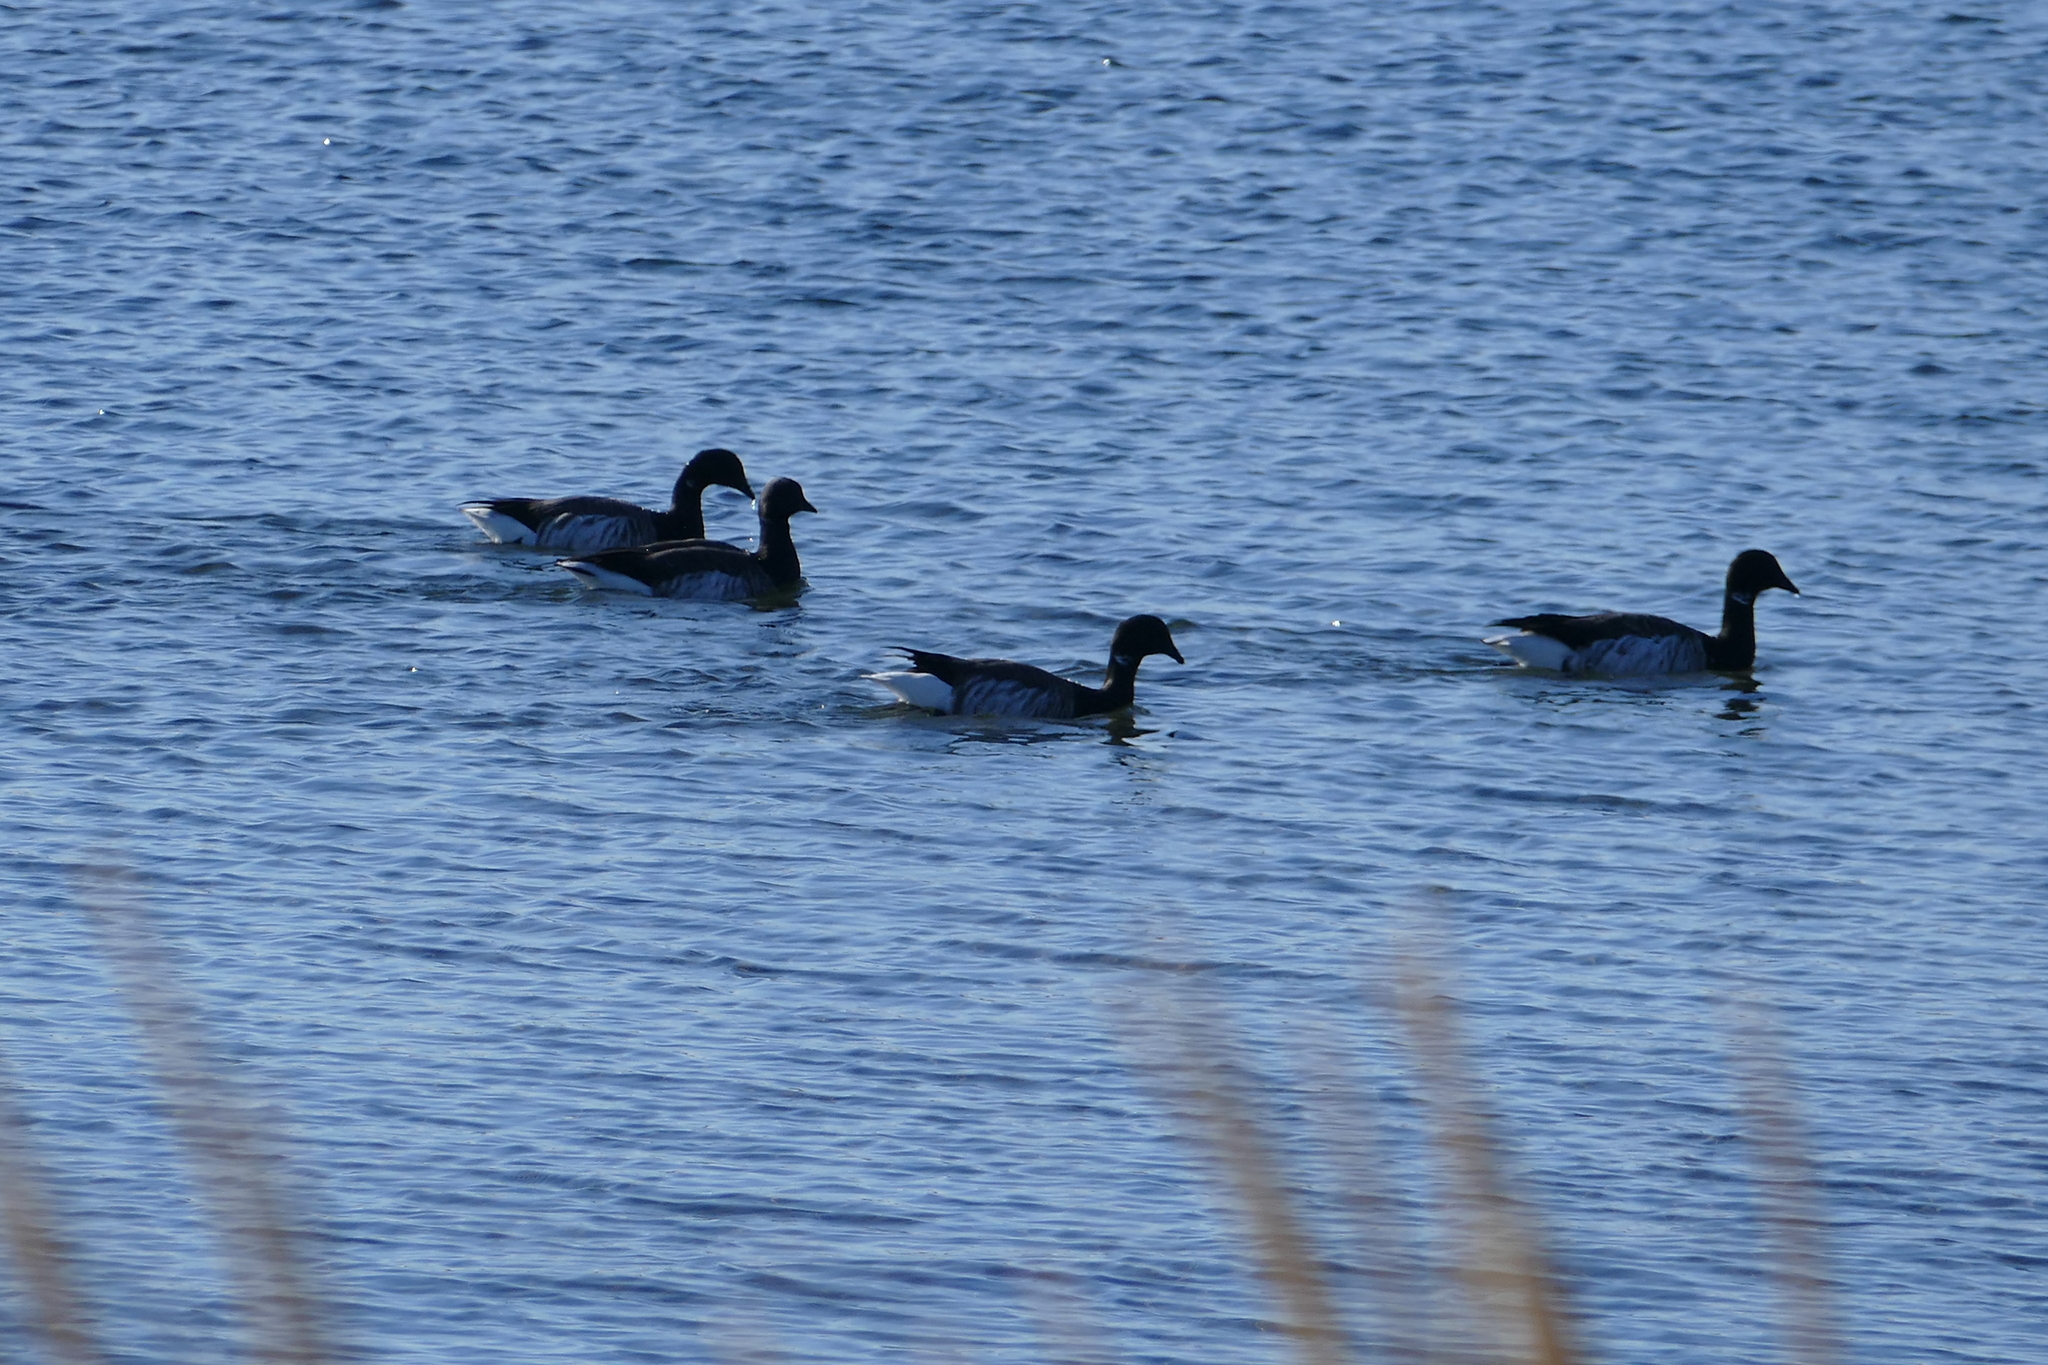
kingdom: Animalia
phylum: Chordata
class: Aves
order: Anseriformes
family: Anatidae
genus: Branta
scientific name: Branta bernicla
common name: Brant goose
